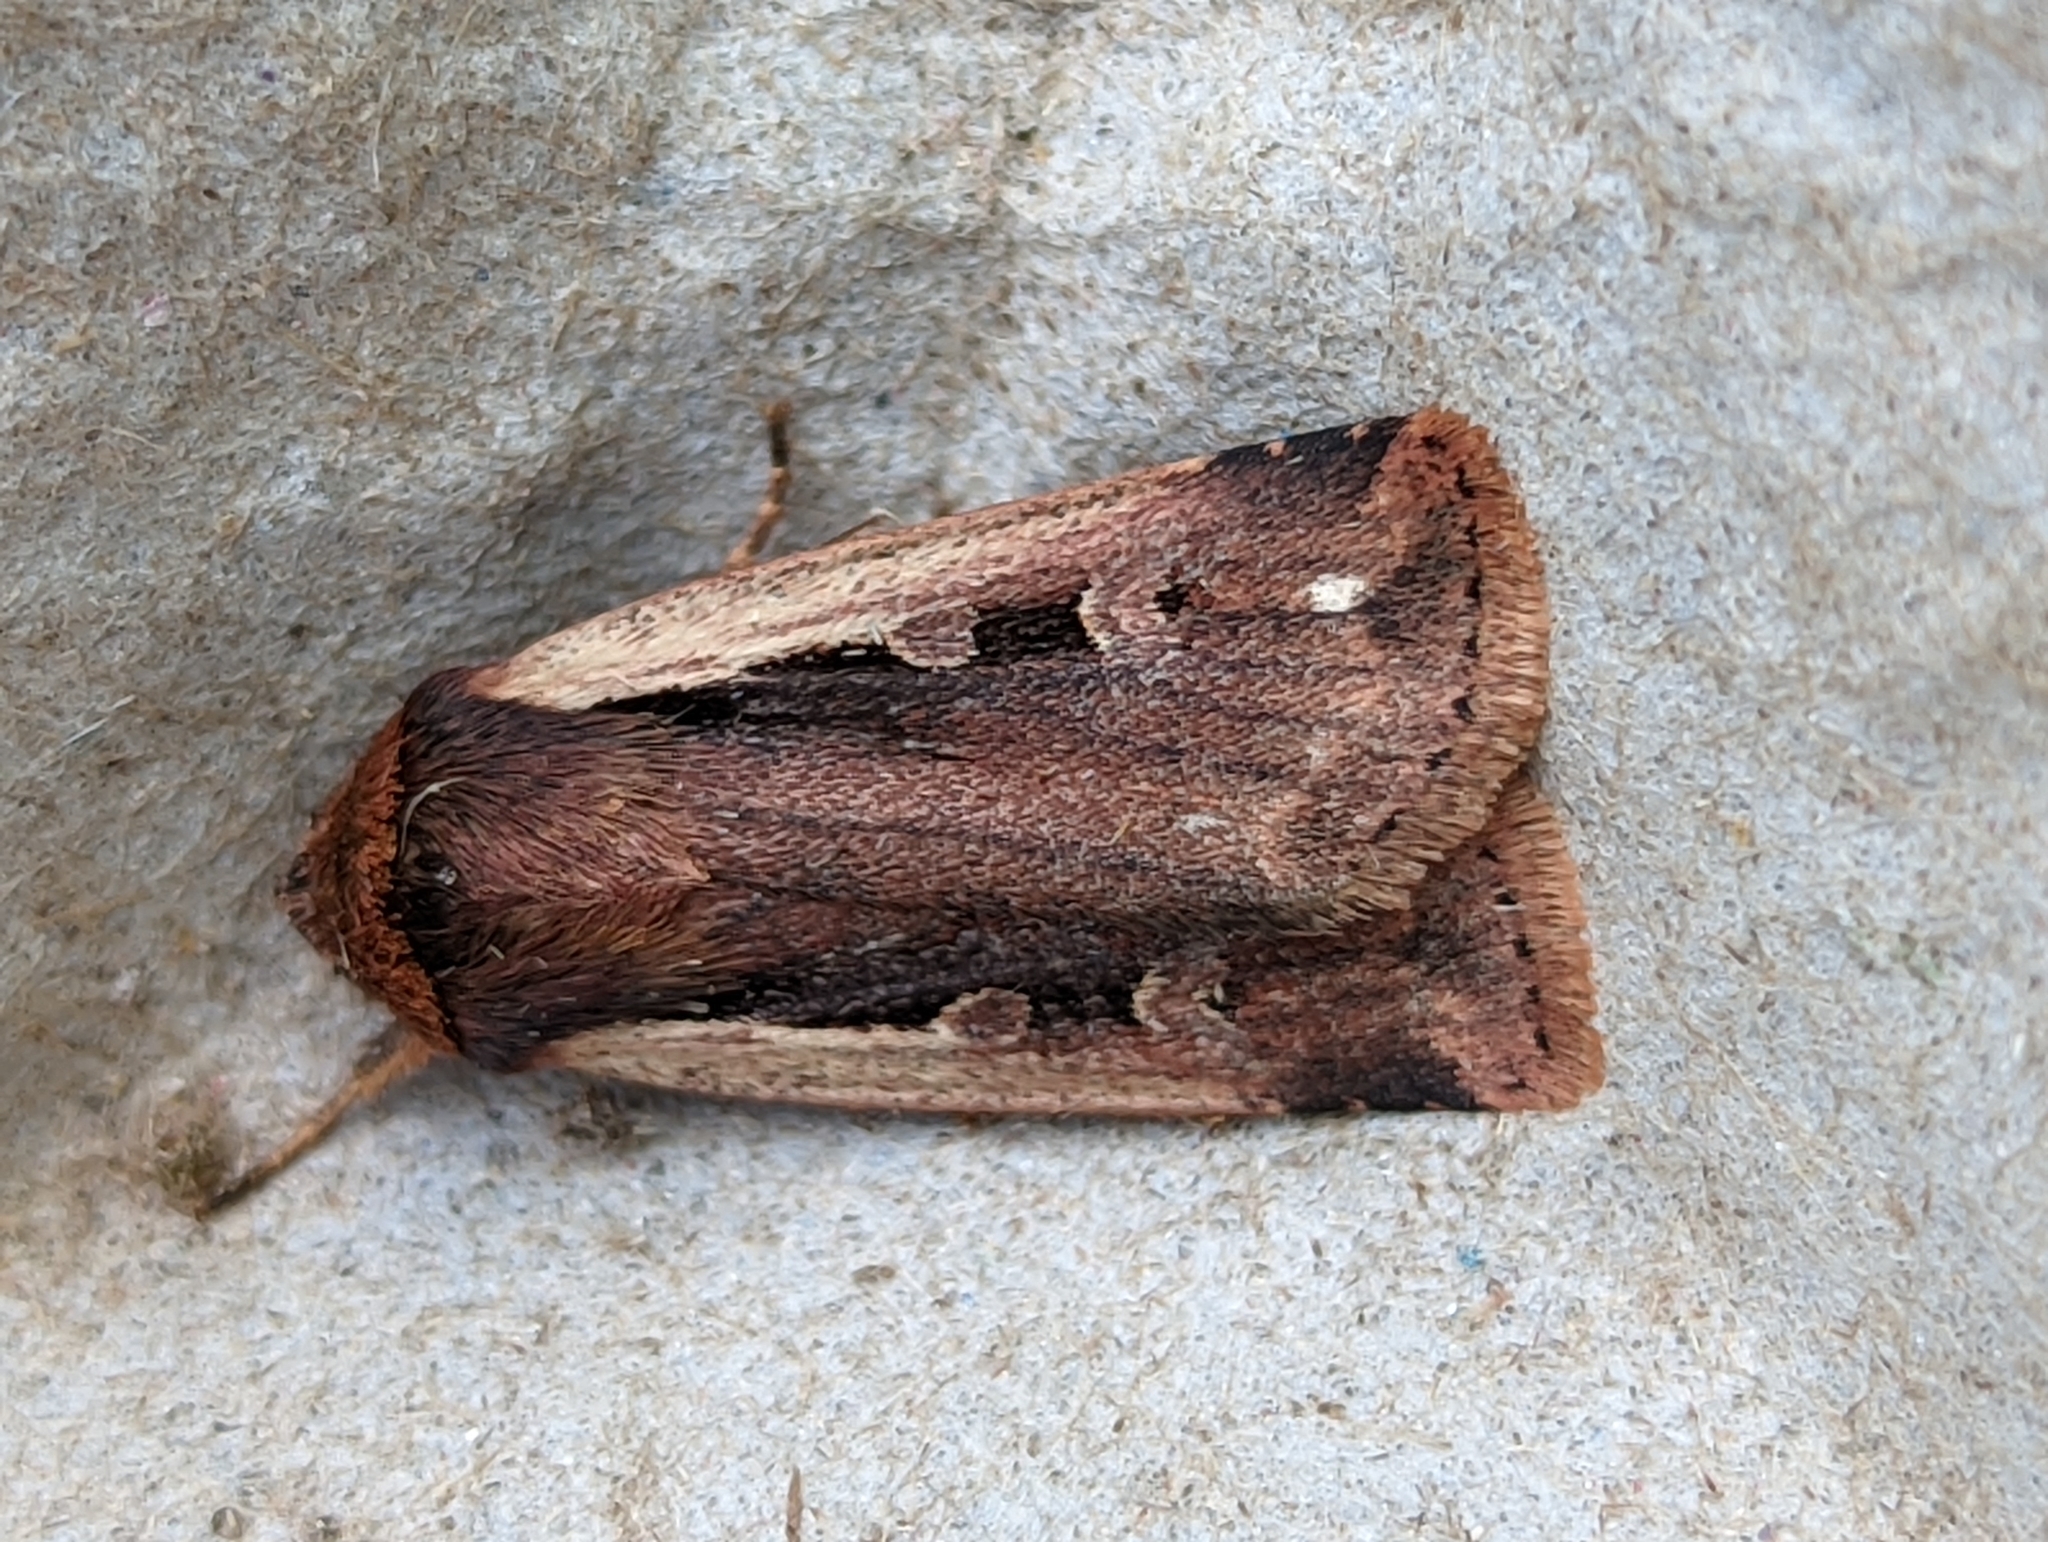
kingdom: Animalia
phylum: Arthropoda
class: Insecta
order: Lepidoptera
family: Noctuidae
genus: Ochropleura
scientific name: Ochropleura plecta
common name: Flame shoulder
